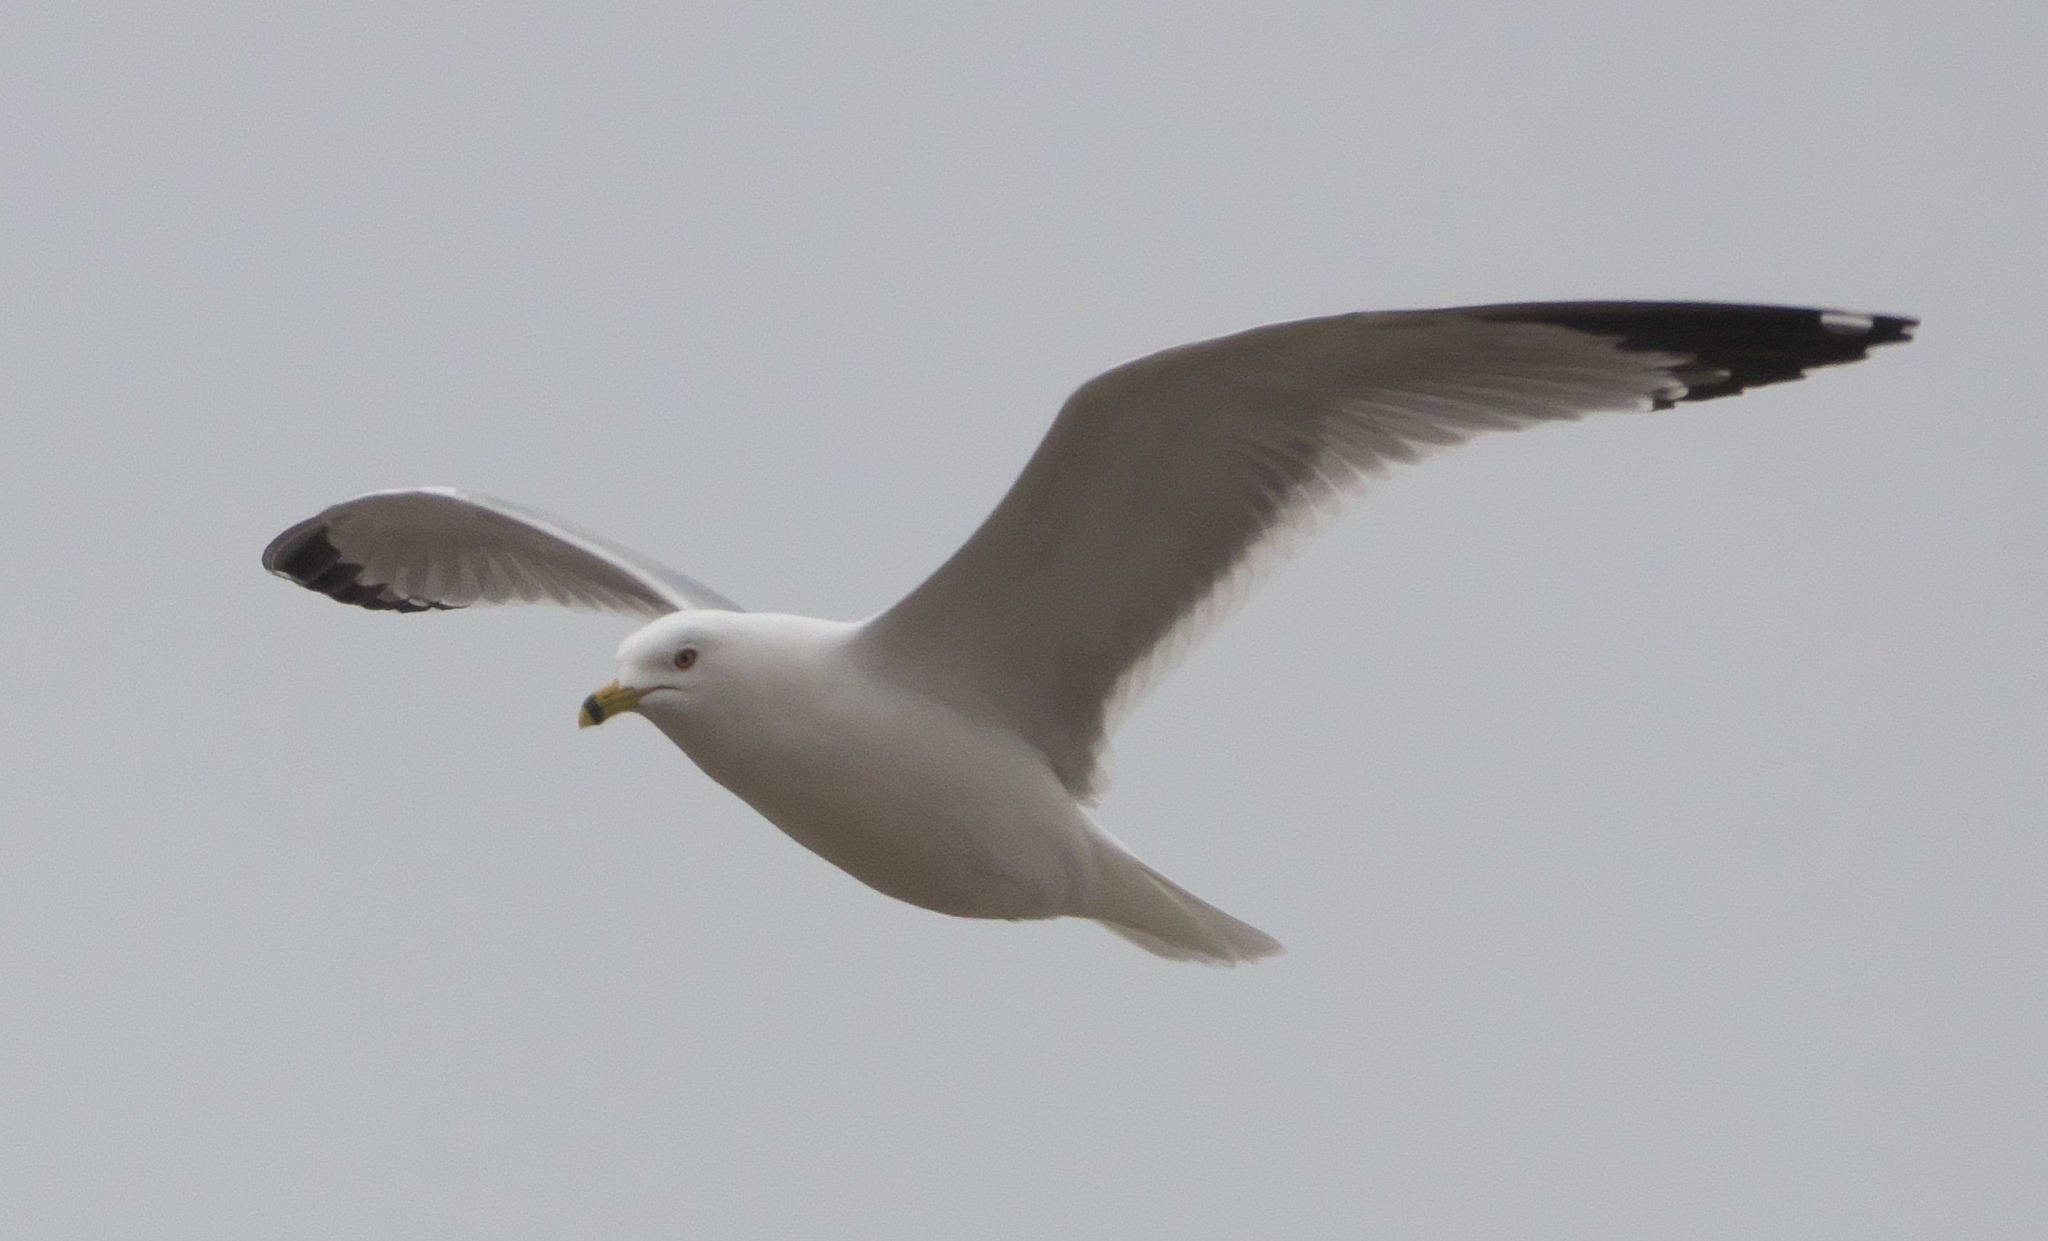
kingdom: Animalia
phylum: Chordata
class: Aves
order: Charadriiformes
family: Laridae
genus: Larus
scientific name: Larus delawarensis
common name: Ring-billed gull
